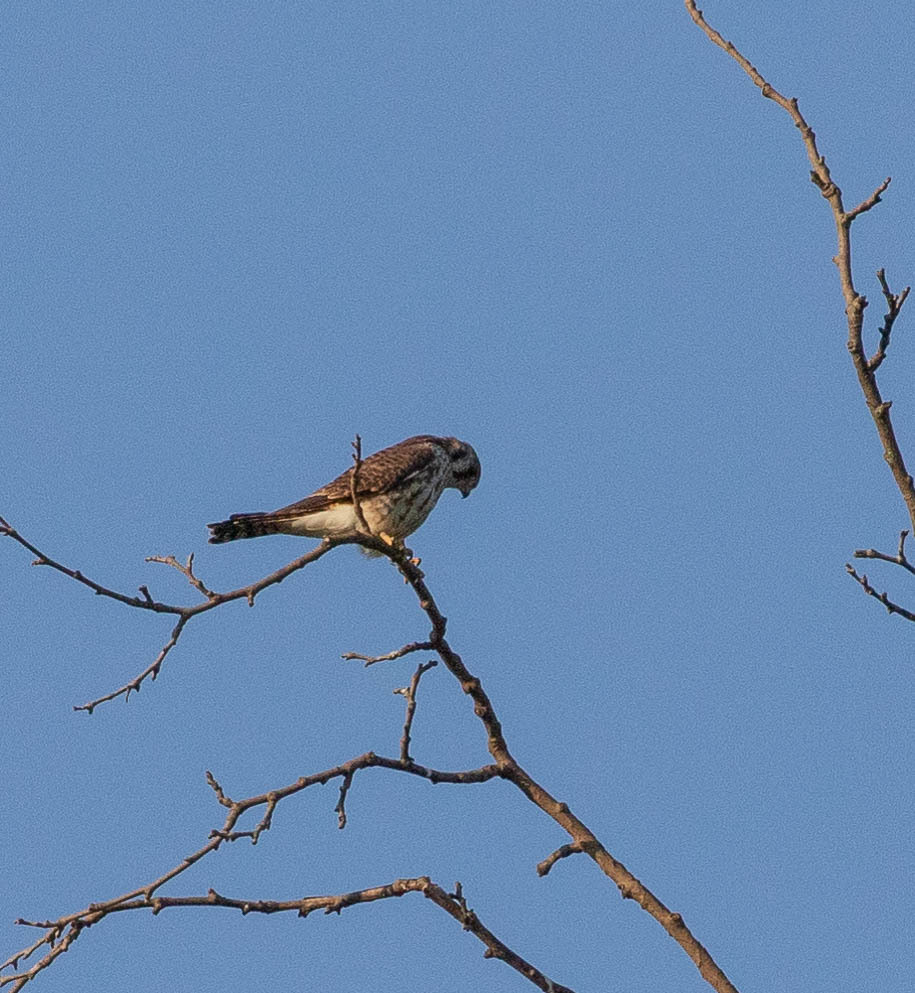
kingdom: Animalia
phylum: Chordata
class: Aves
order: Falconiformes
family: Falconidae
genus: Falco
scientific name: Falco sparverius
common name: American kestrel
